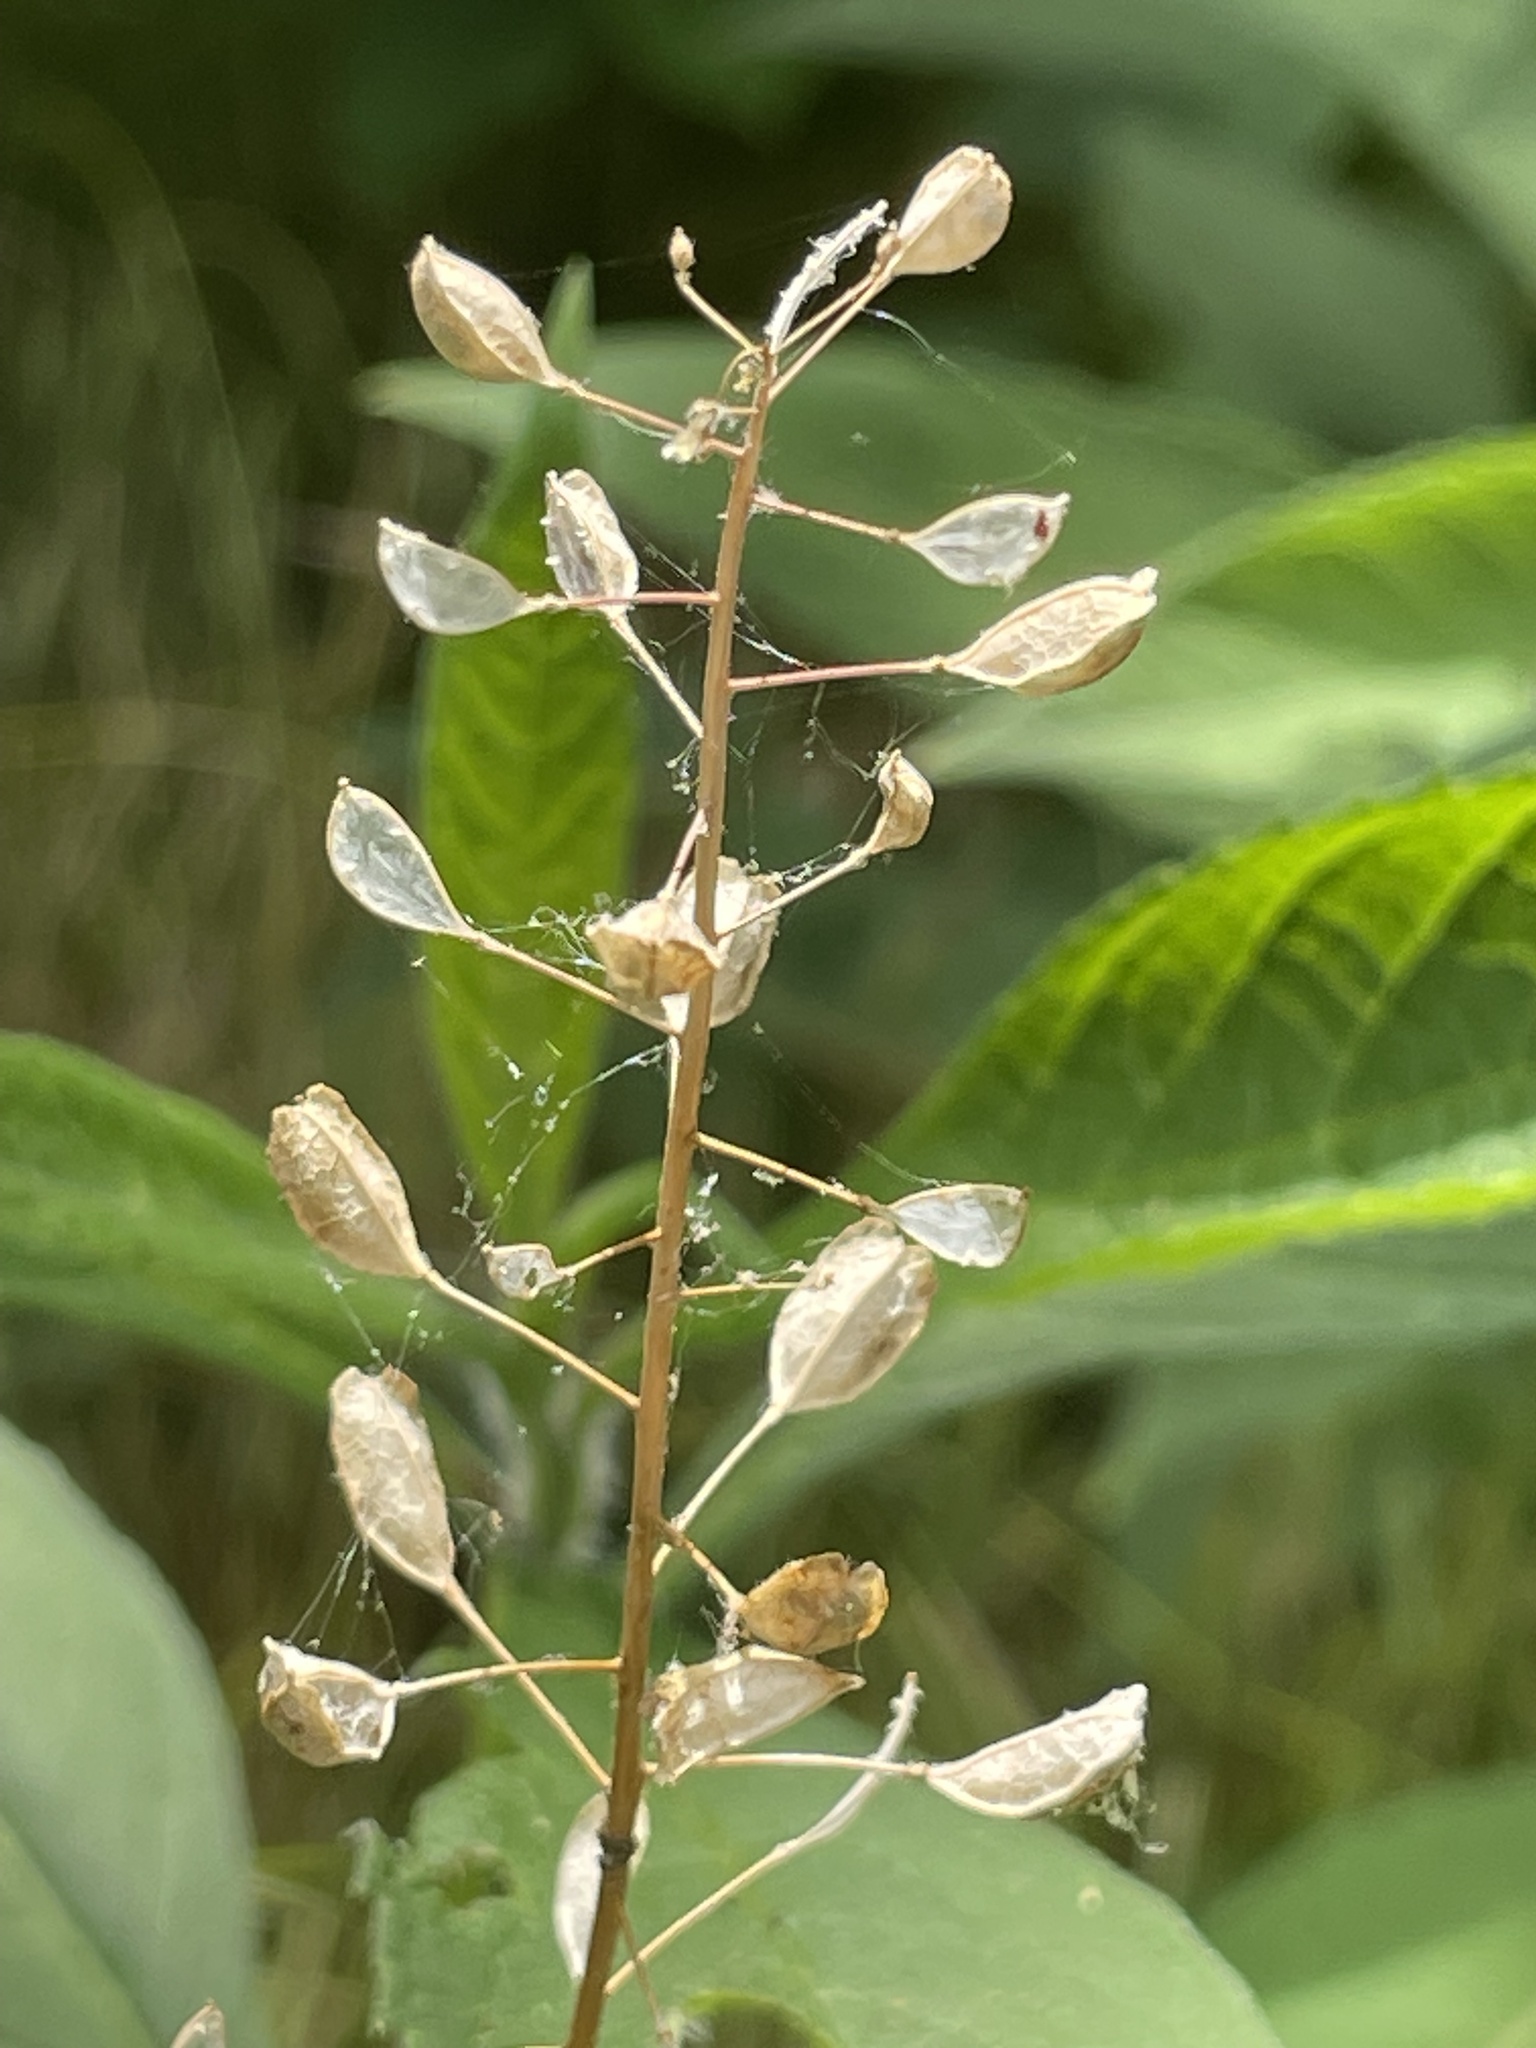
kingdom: Plantae
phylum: Tracheophyta
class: Magnoliopsida
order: Brassicales
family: Brassicaceae
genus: Mummenhoffia
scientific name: Mummenhoffia alliacea
